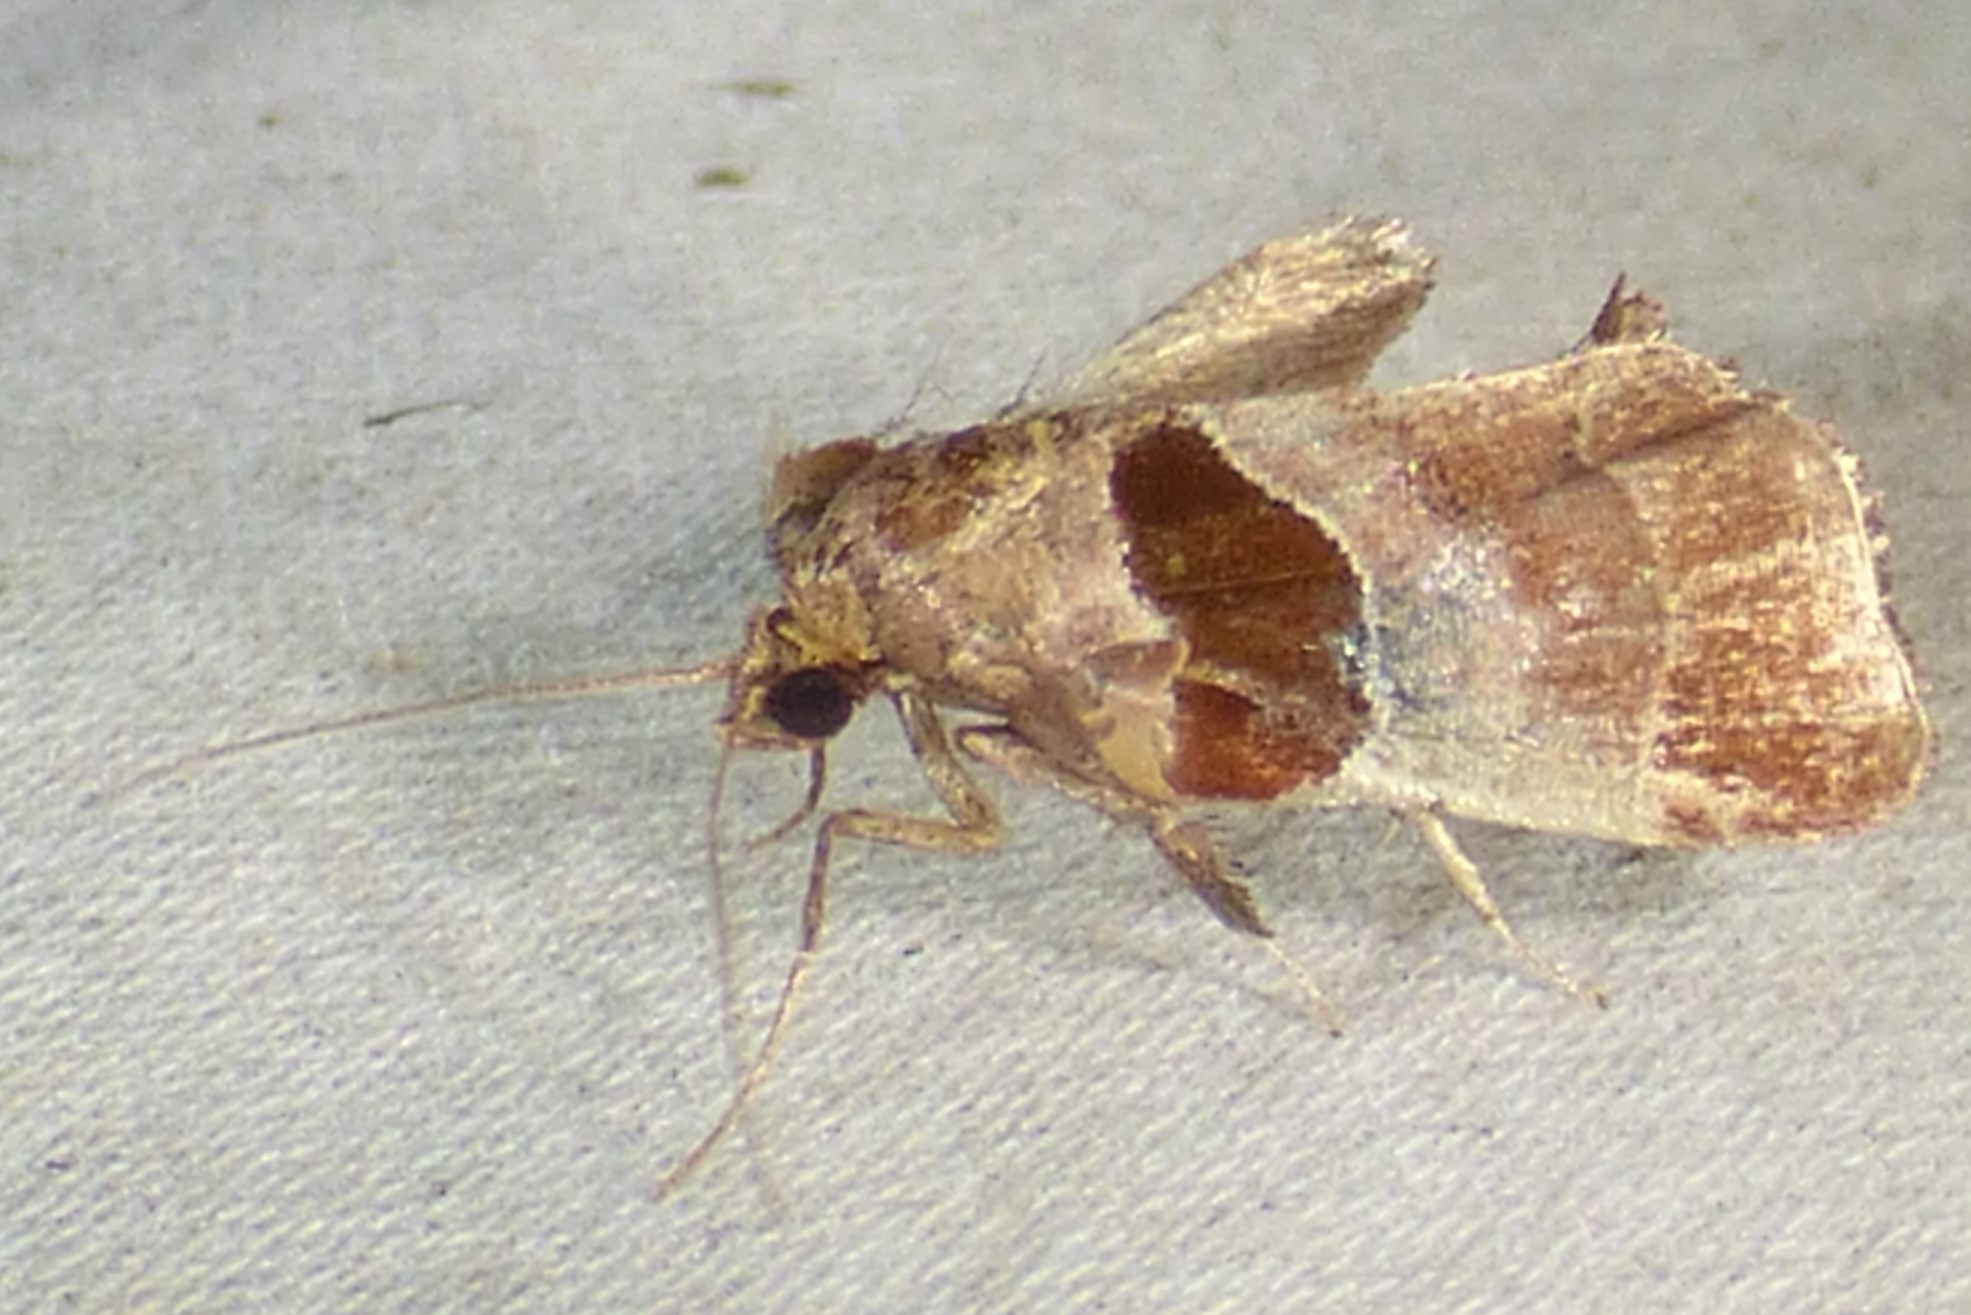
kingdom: Animalia
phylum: Arthropoda
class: Insecta
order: Lepidoptera
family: Pyralidae
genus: Tosale
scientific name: Tosale oviplagalis
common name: Dimorphic tosale moth
